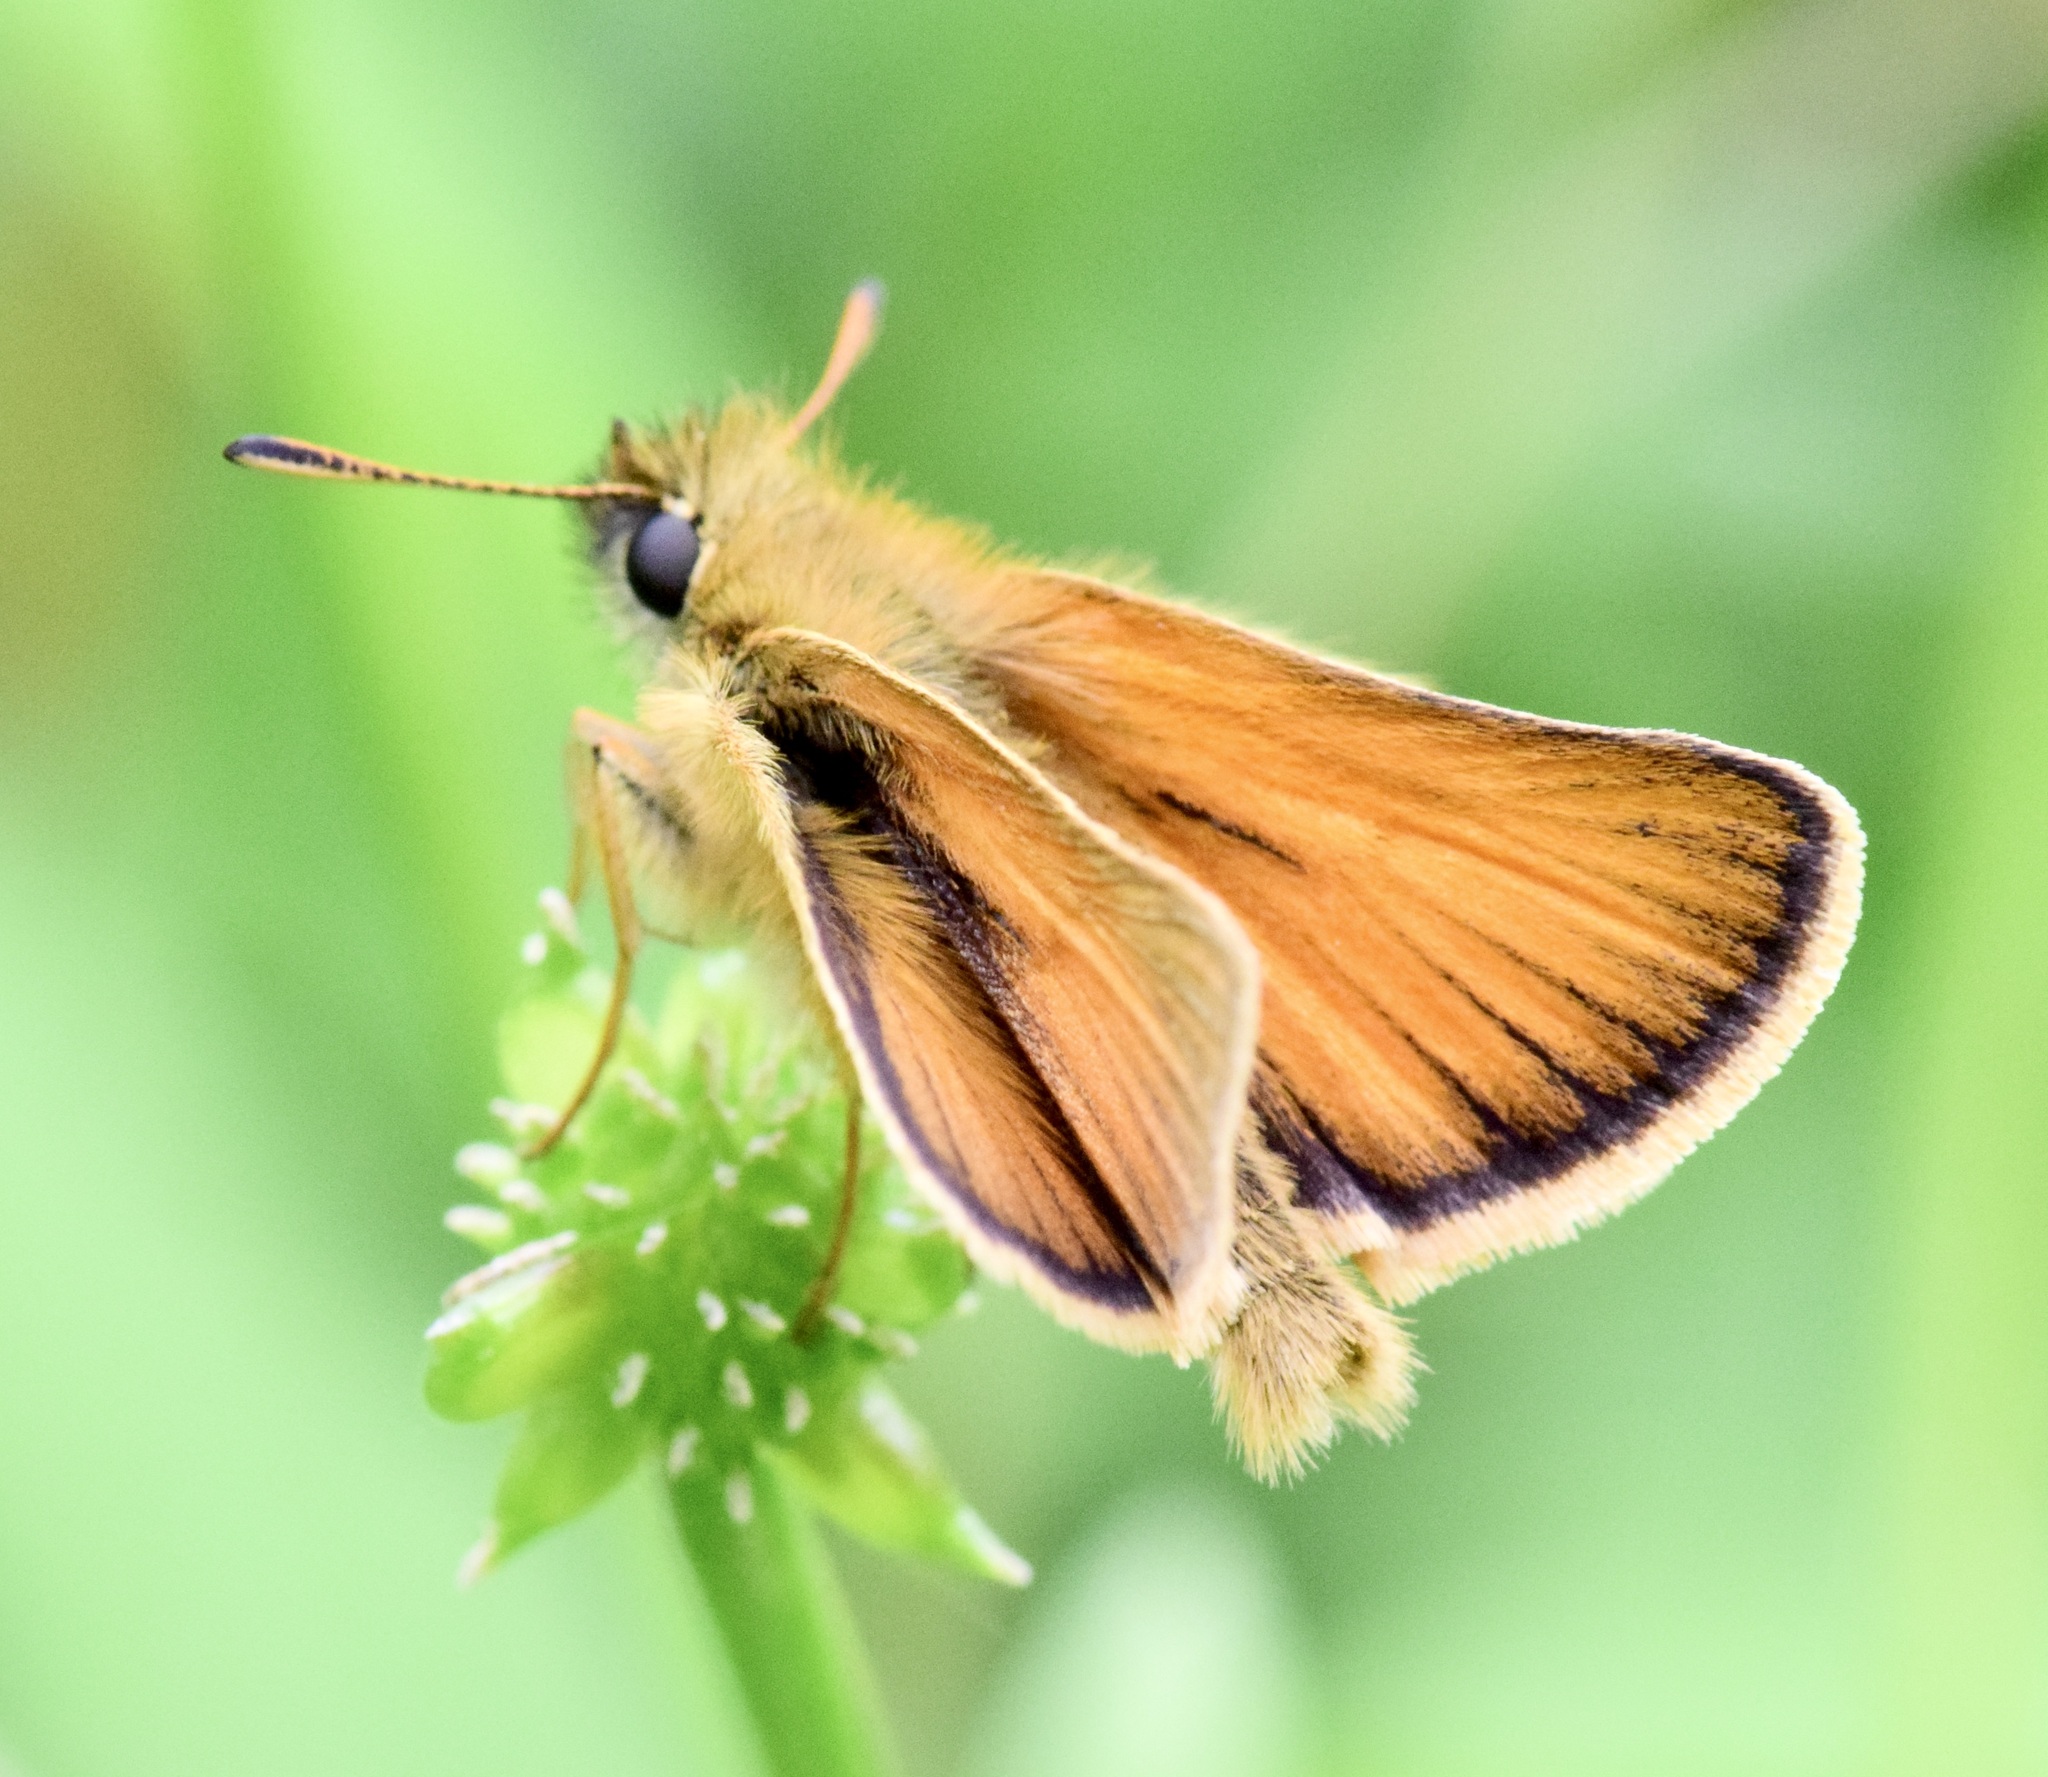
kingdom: Animalia
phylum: Arthropoda
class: Insecta
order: Lepidoptera
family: Hesperiidae
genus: Thymelicus
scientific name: Thymelicus lineola
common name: Essex skipper
